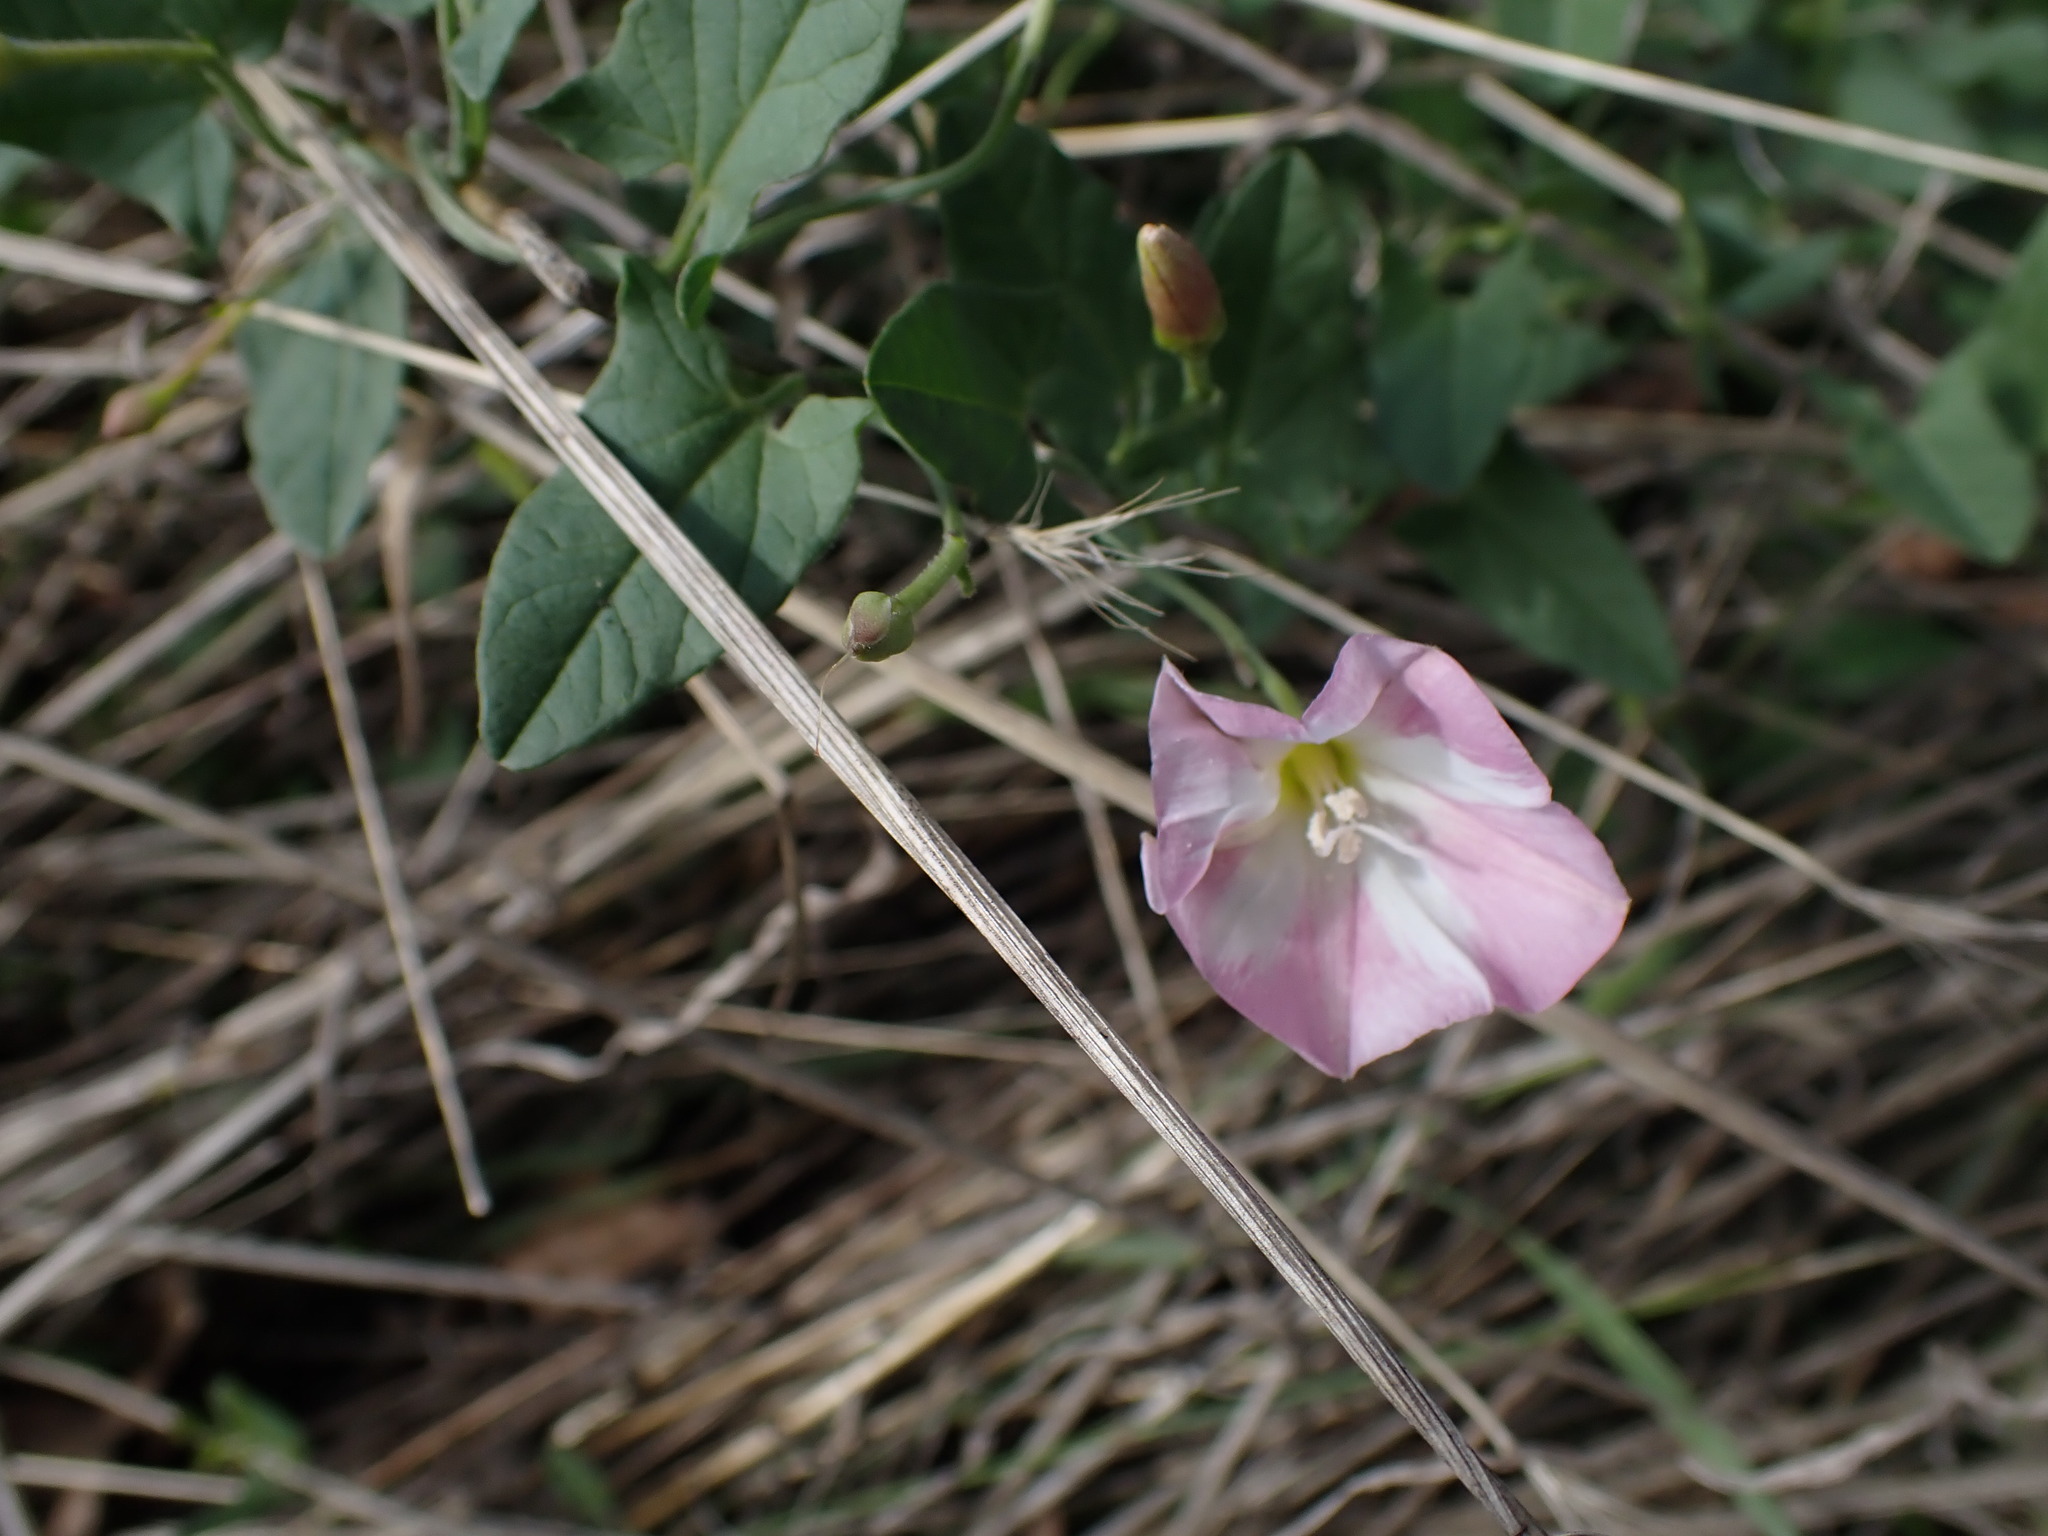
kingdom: Plantae
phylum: Tracheophyta
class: Magnoliopsida
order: Solanales
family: Convolvulaceae
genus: Convolvulus
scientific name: Convolvulus arvensis
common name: Field bindweed
